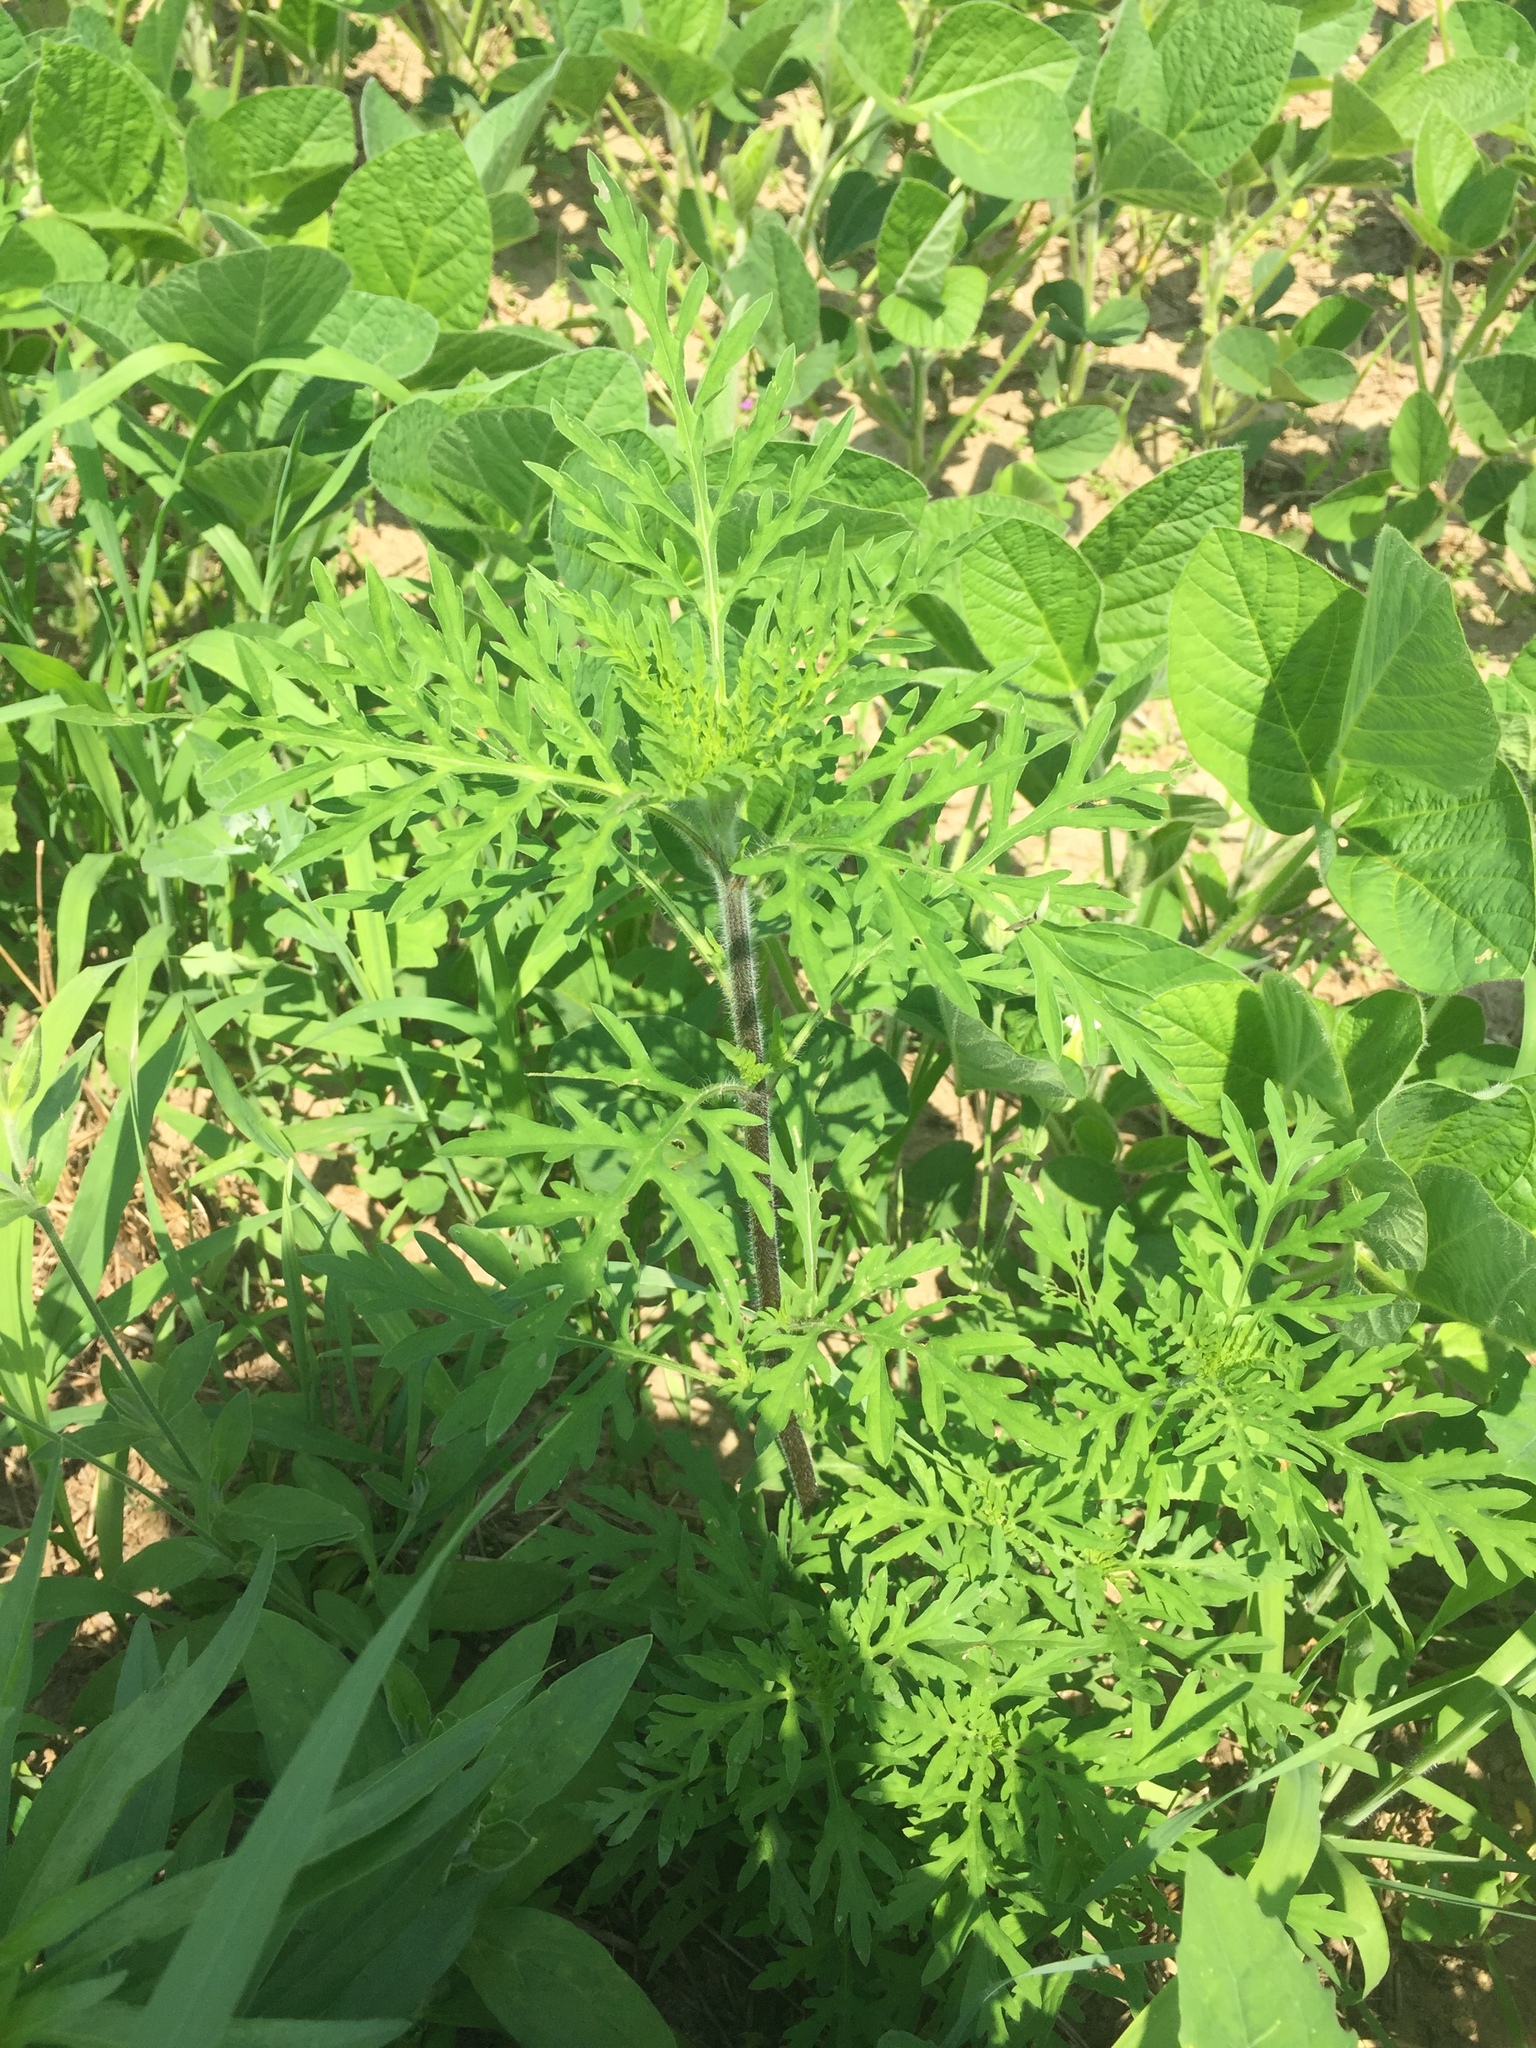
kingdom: Plantae
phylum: Tracheophyta
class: Magnoliopsida
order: Asterales
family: Asteraceae
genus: Ambrosia
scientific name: Ambrosia artemisiifolia
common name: Annual ragweed
